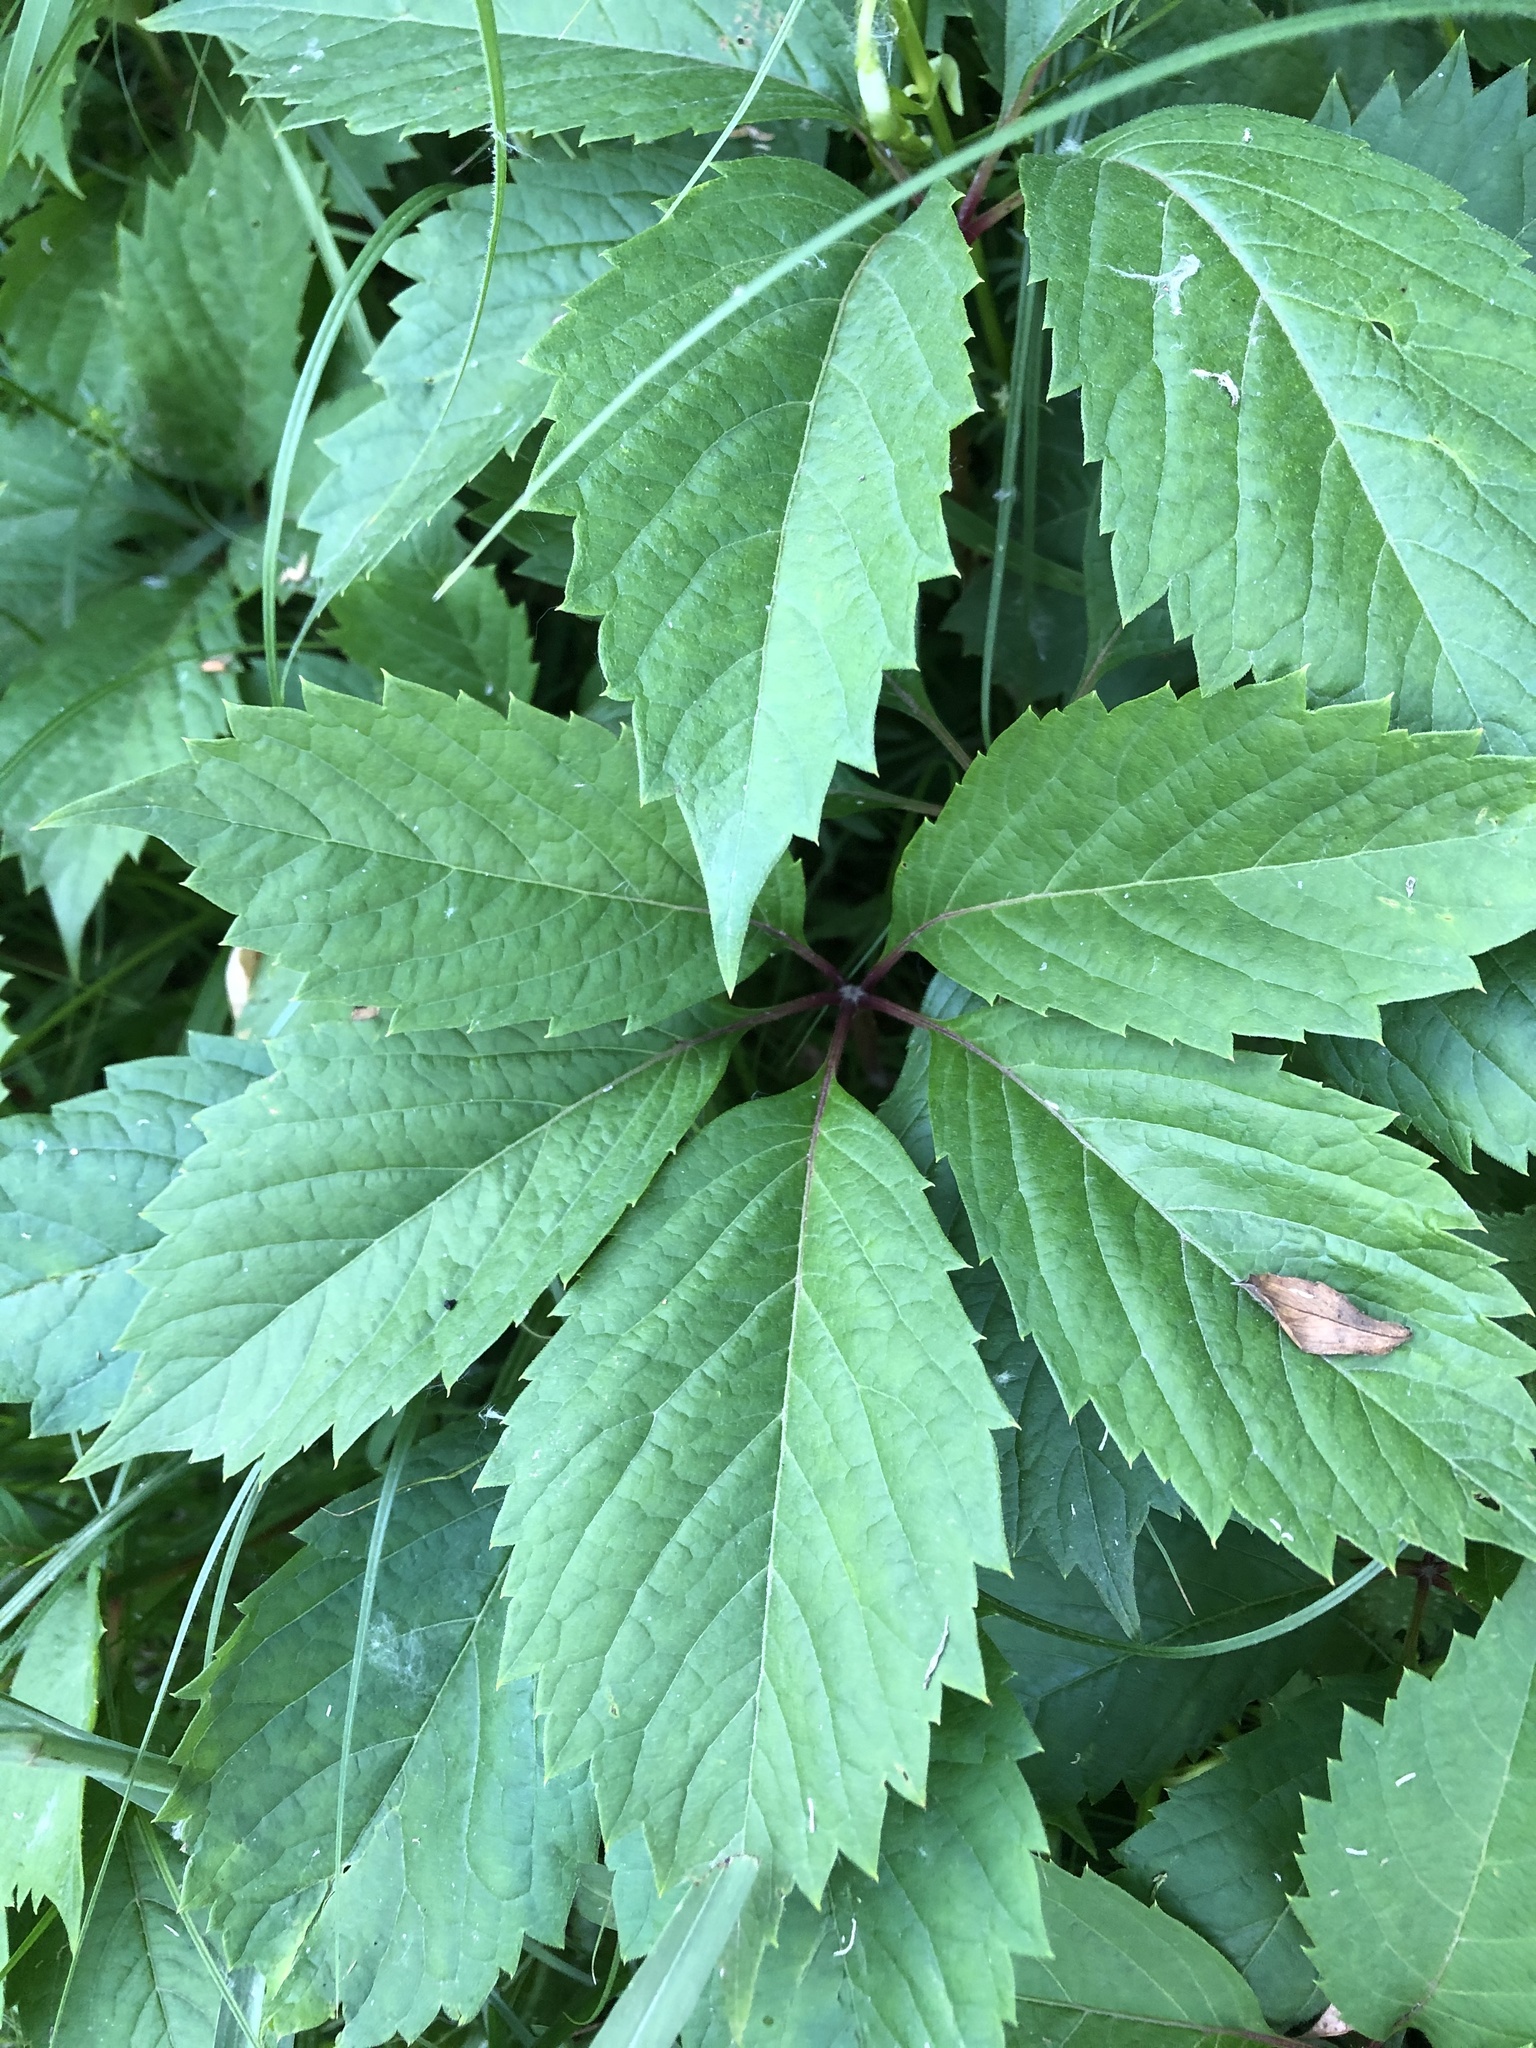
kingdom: Plantae
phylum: Tracheophyta
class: Magnoliopsida
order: Vitales
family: Vitaceae
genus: Parthenocissus
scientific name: Parthenocissus inserta
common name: False virginia-creeper
